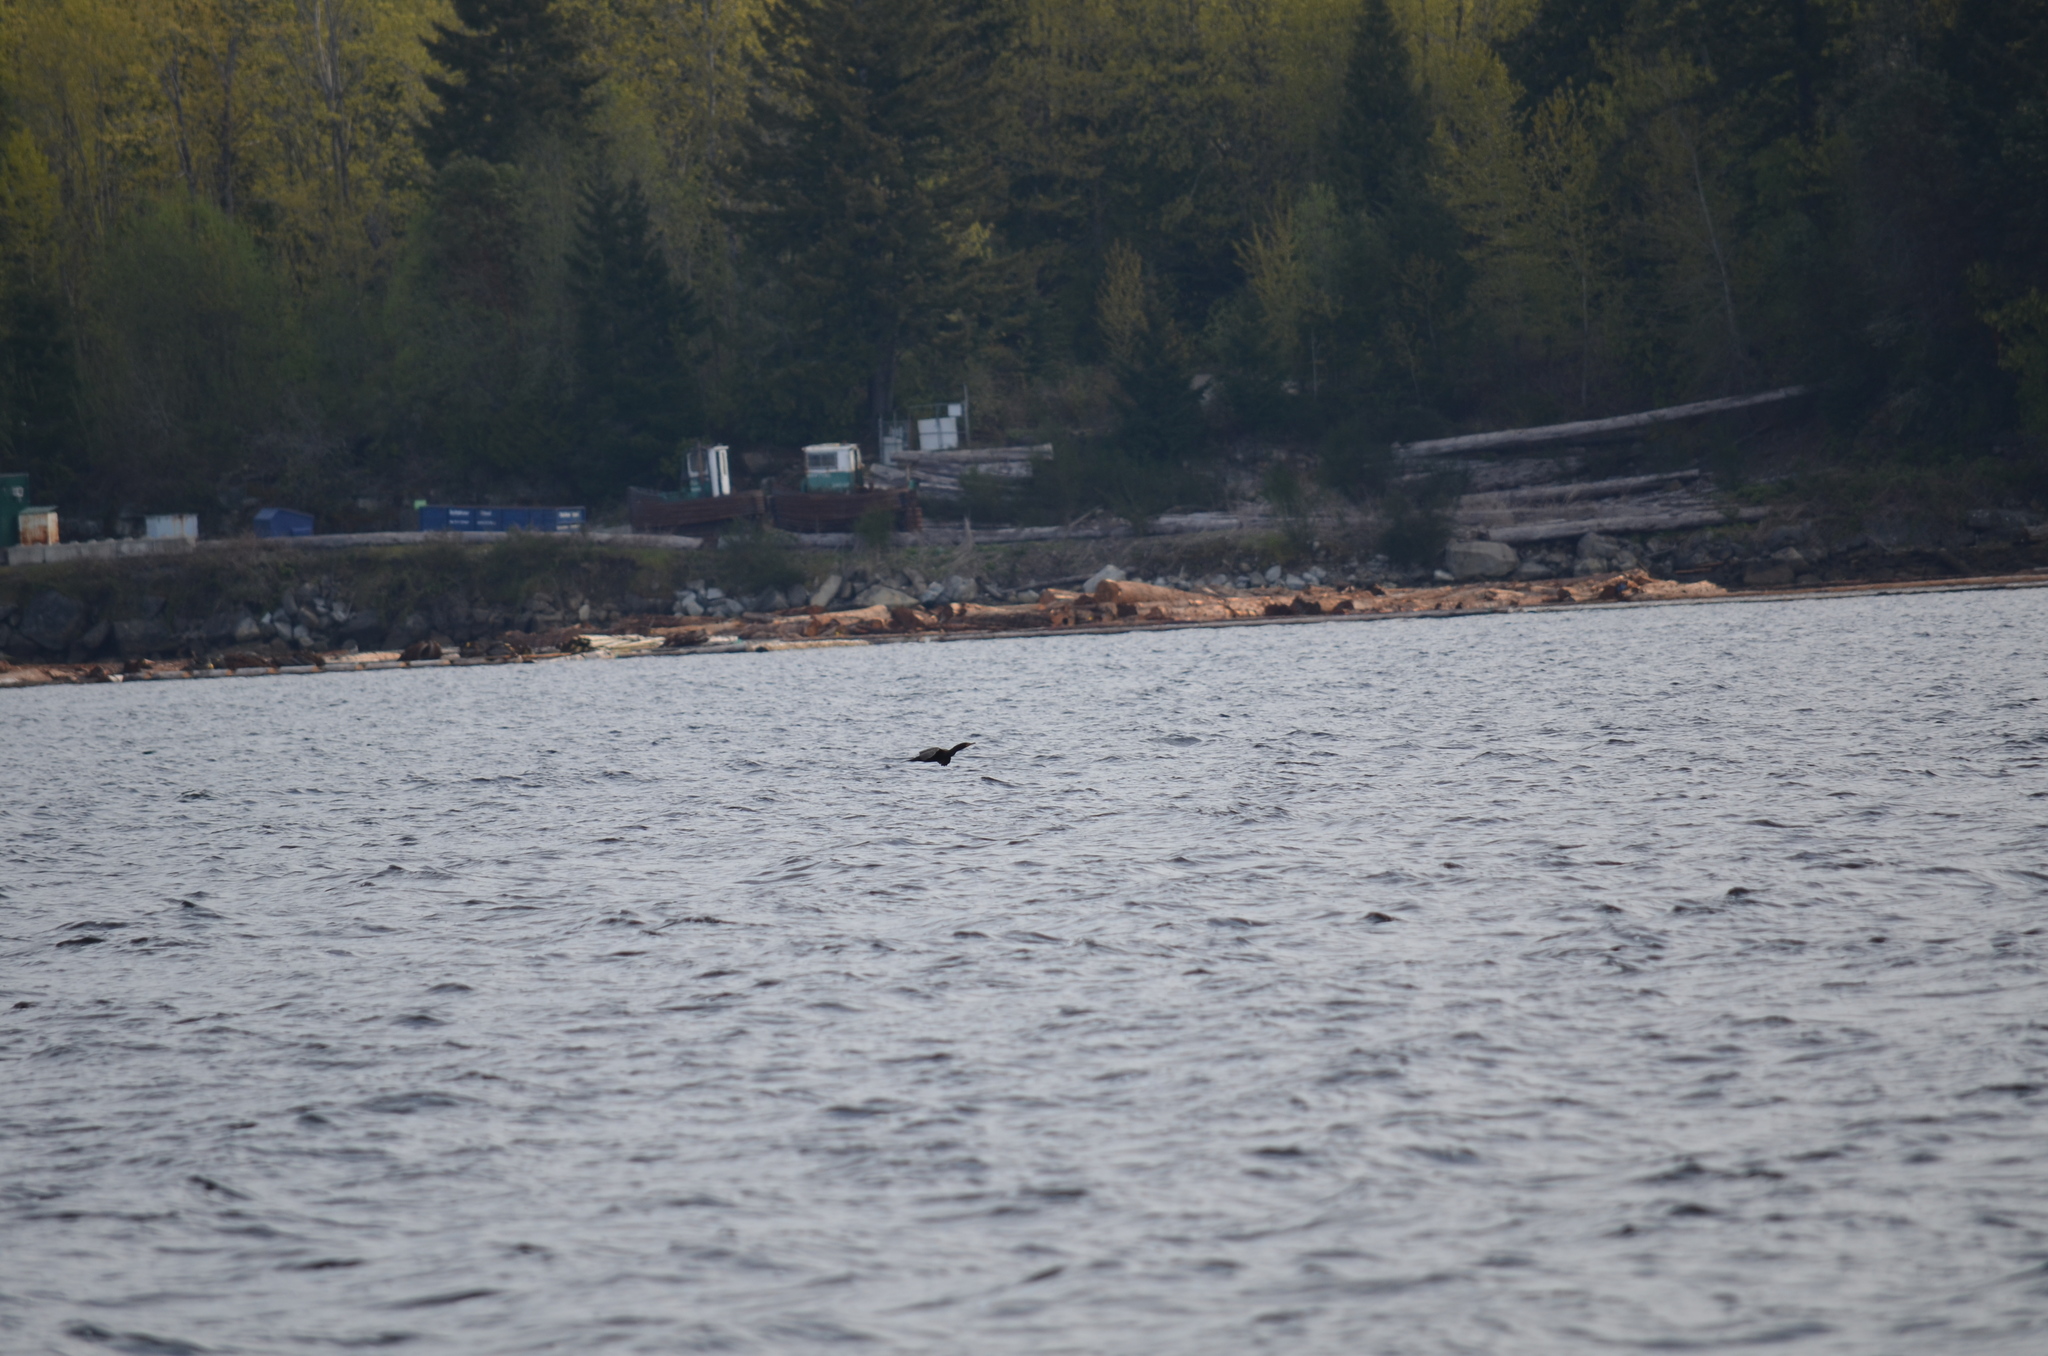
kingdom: Animalia
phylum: Chordata
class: Aves
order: Suliformes
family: Phalacrocoracidae
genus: Phalacrocorax
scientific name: Phalacrocorax auritus
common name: Double-crested cormorant
